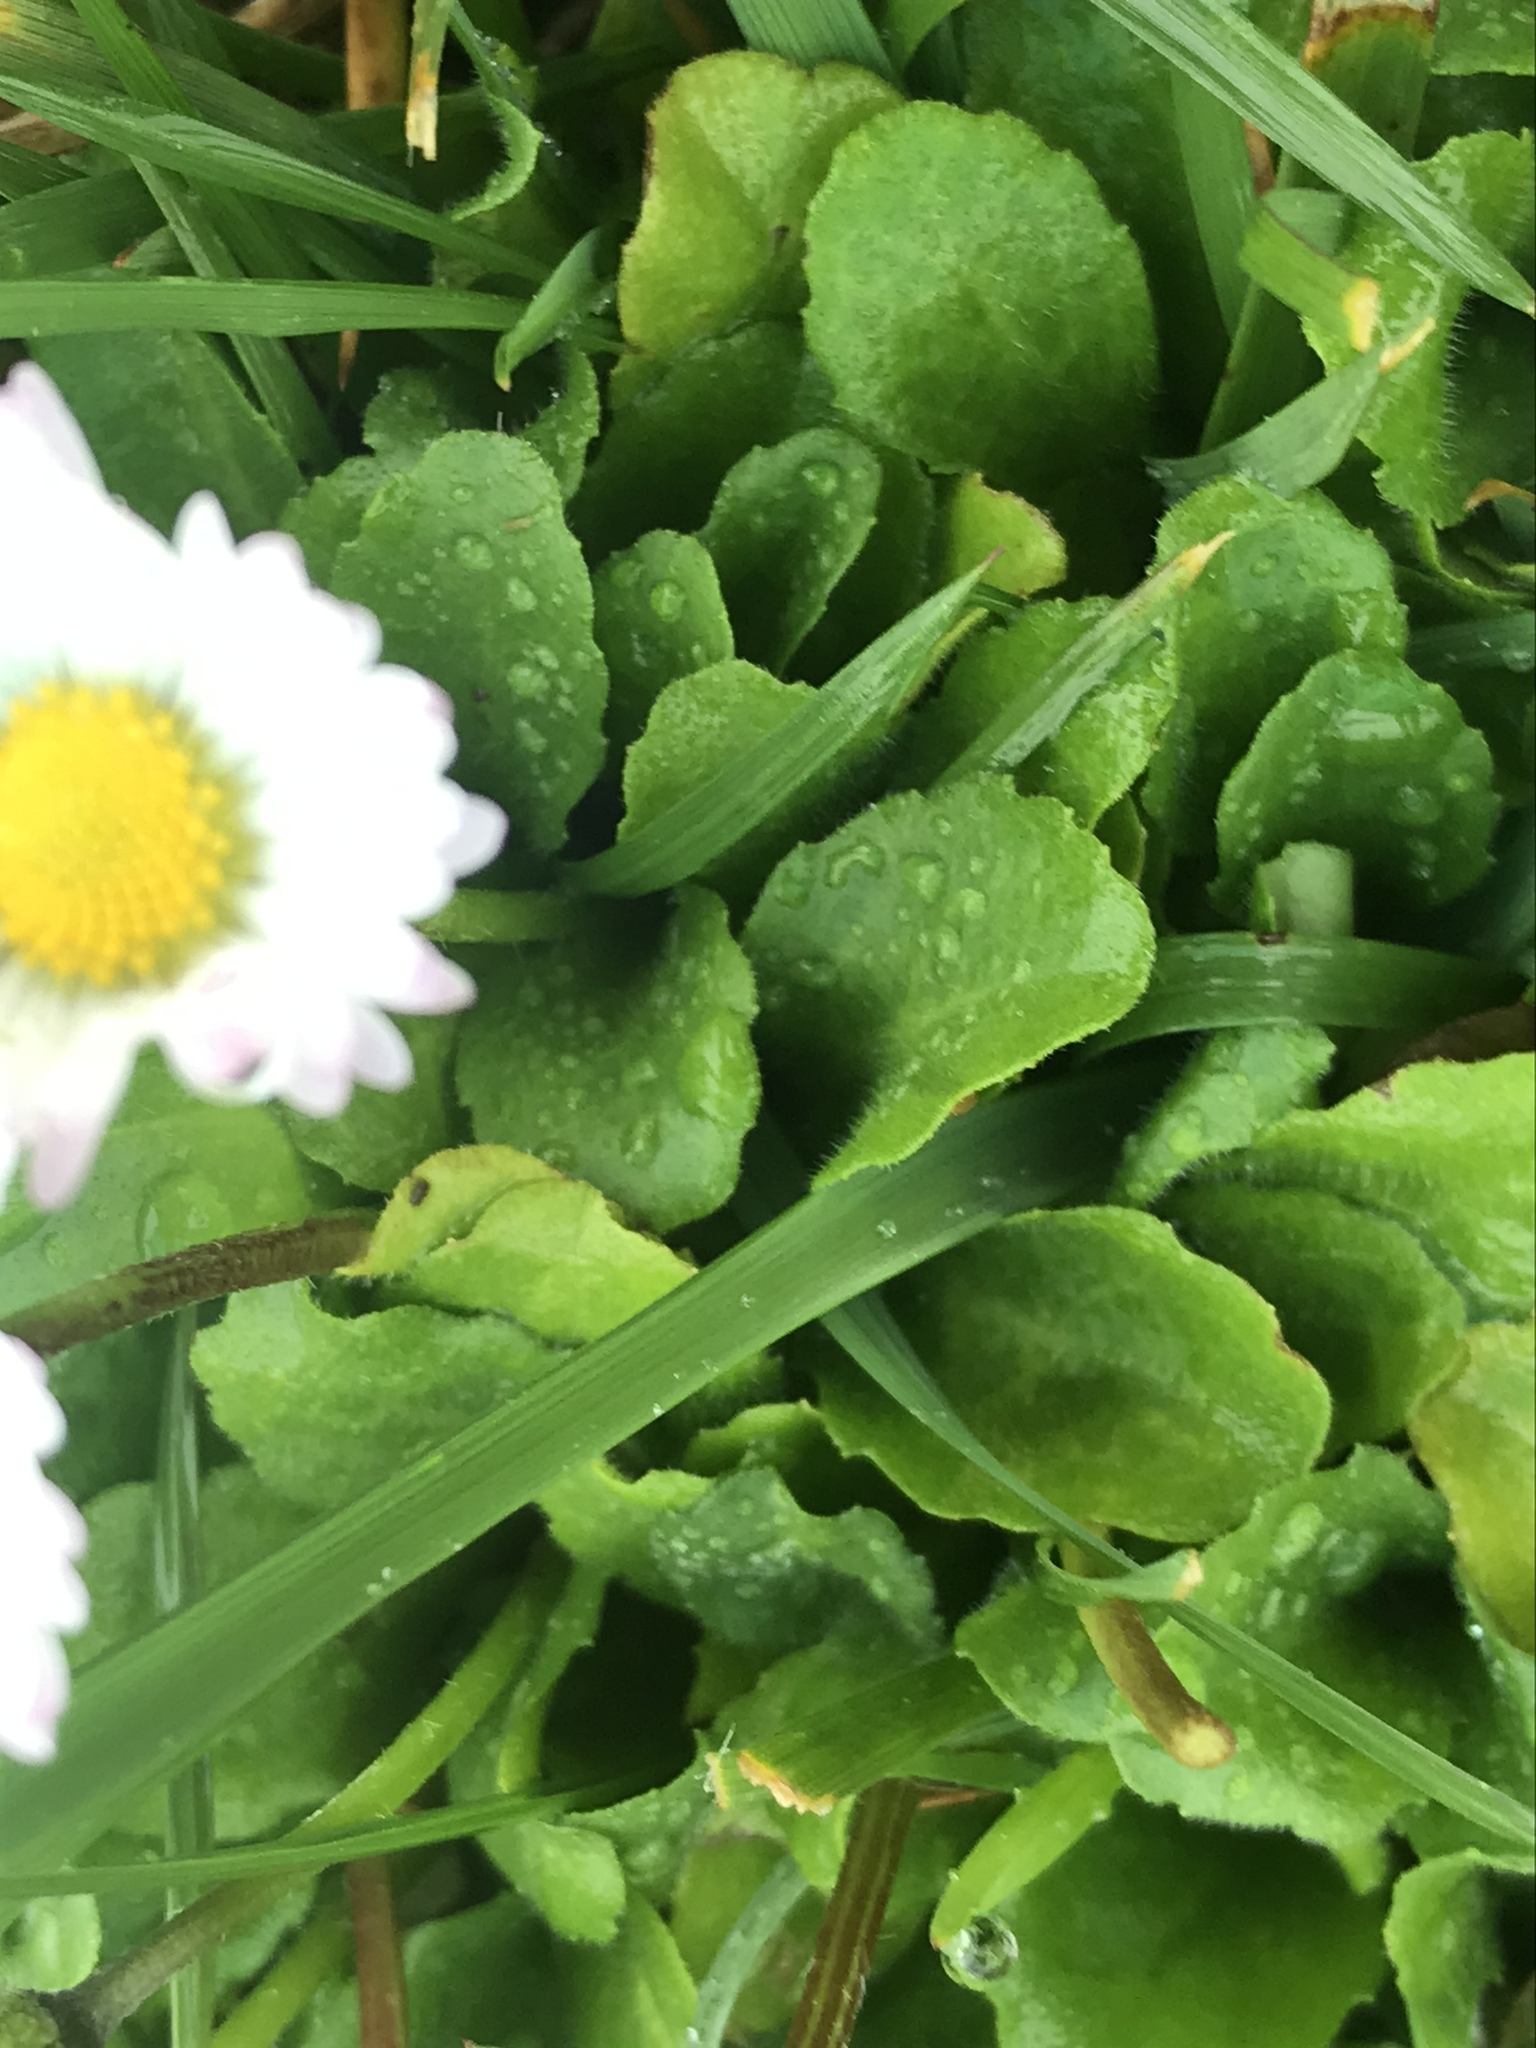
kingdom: Plantae
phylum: Tracheophyta
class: Magnoliopsida
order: Asterales
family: Asteraceae
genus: Bellis
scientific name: Bellis perennis
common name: Lawndaisy
